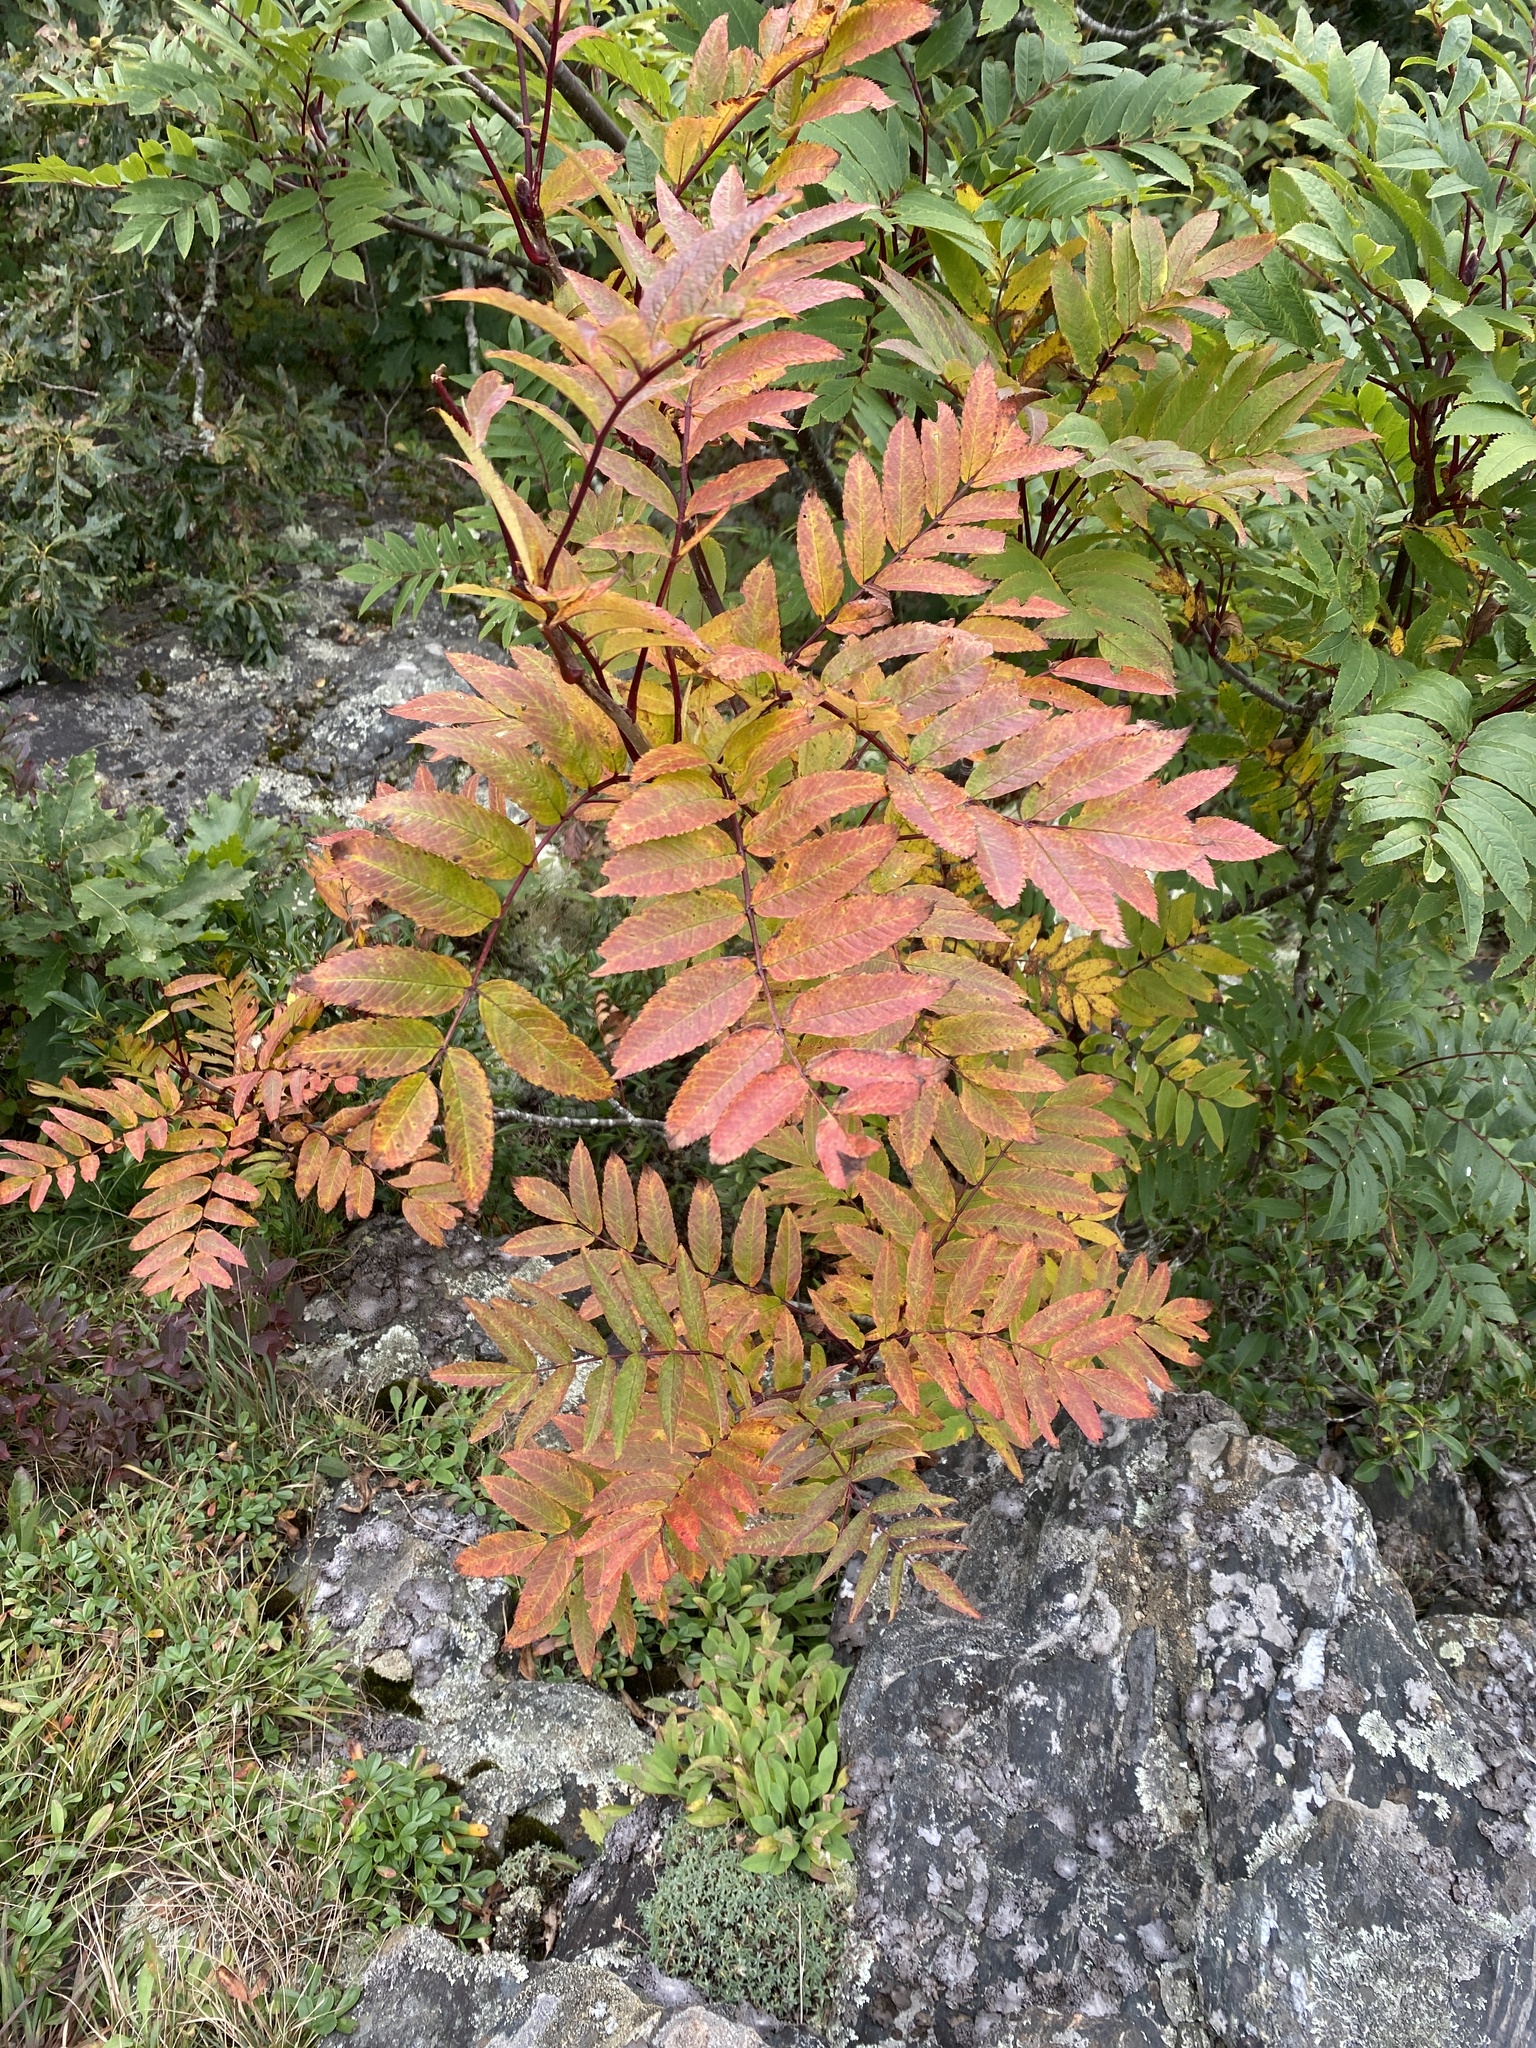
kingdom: Plantae
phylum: Tracheophyta
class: Magnoliopsida
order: Rosales
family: Rosaceae
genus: Sorbus
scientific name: Sorbus americana
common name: American mountain-ash
